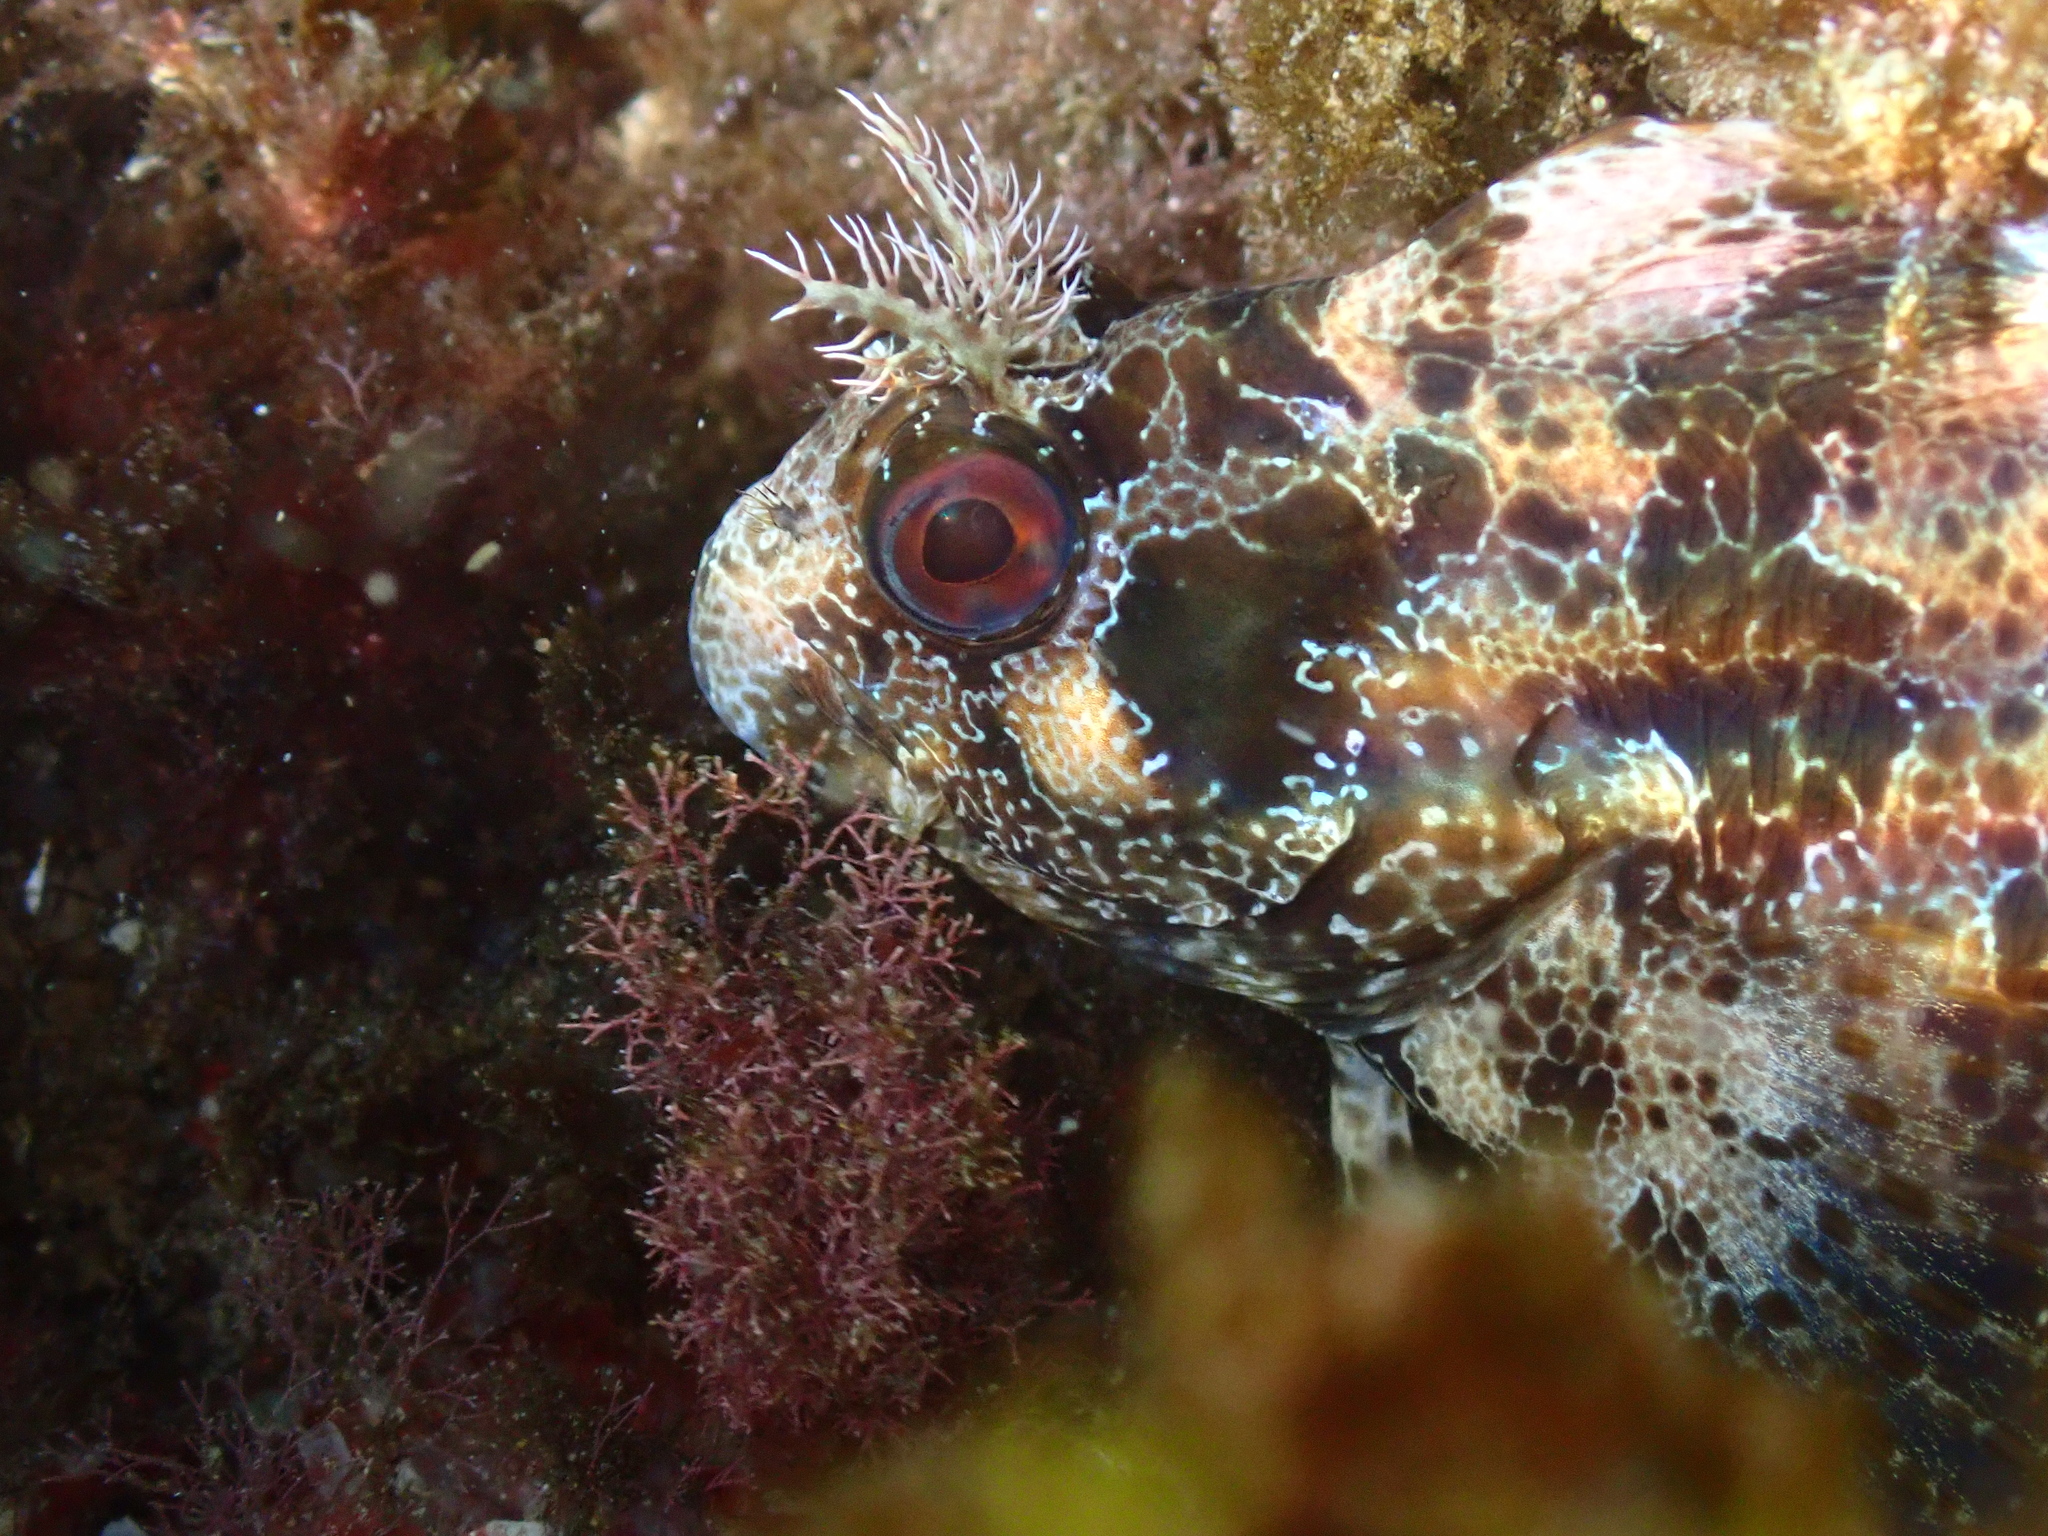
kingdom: Animalia
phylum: Chordata
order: Perciformes
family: Blenniidae
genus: Parablennius
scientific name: Parablennius gattorugine
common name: Tompot blenny
